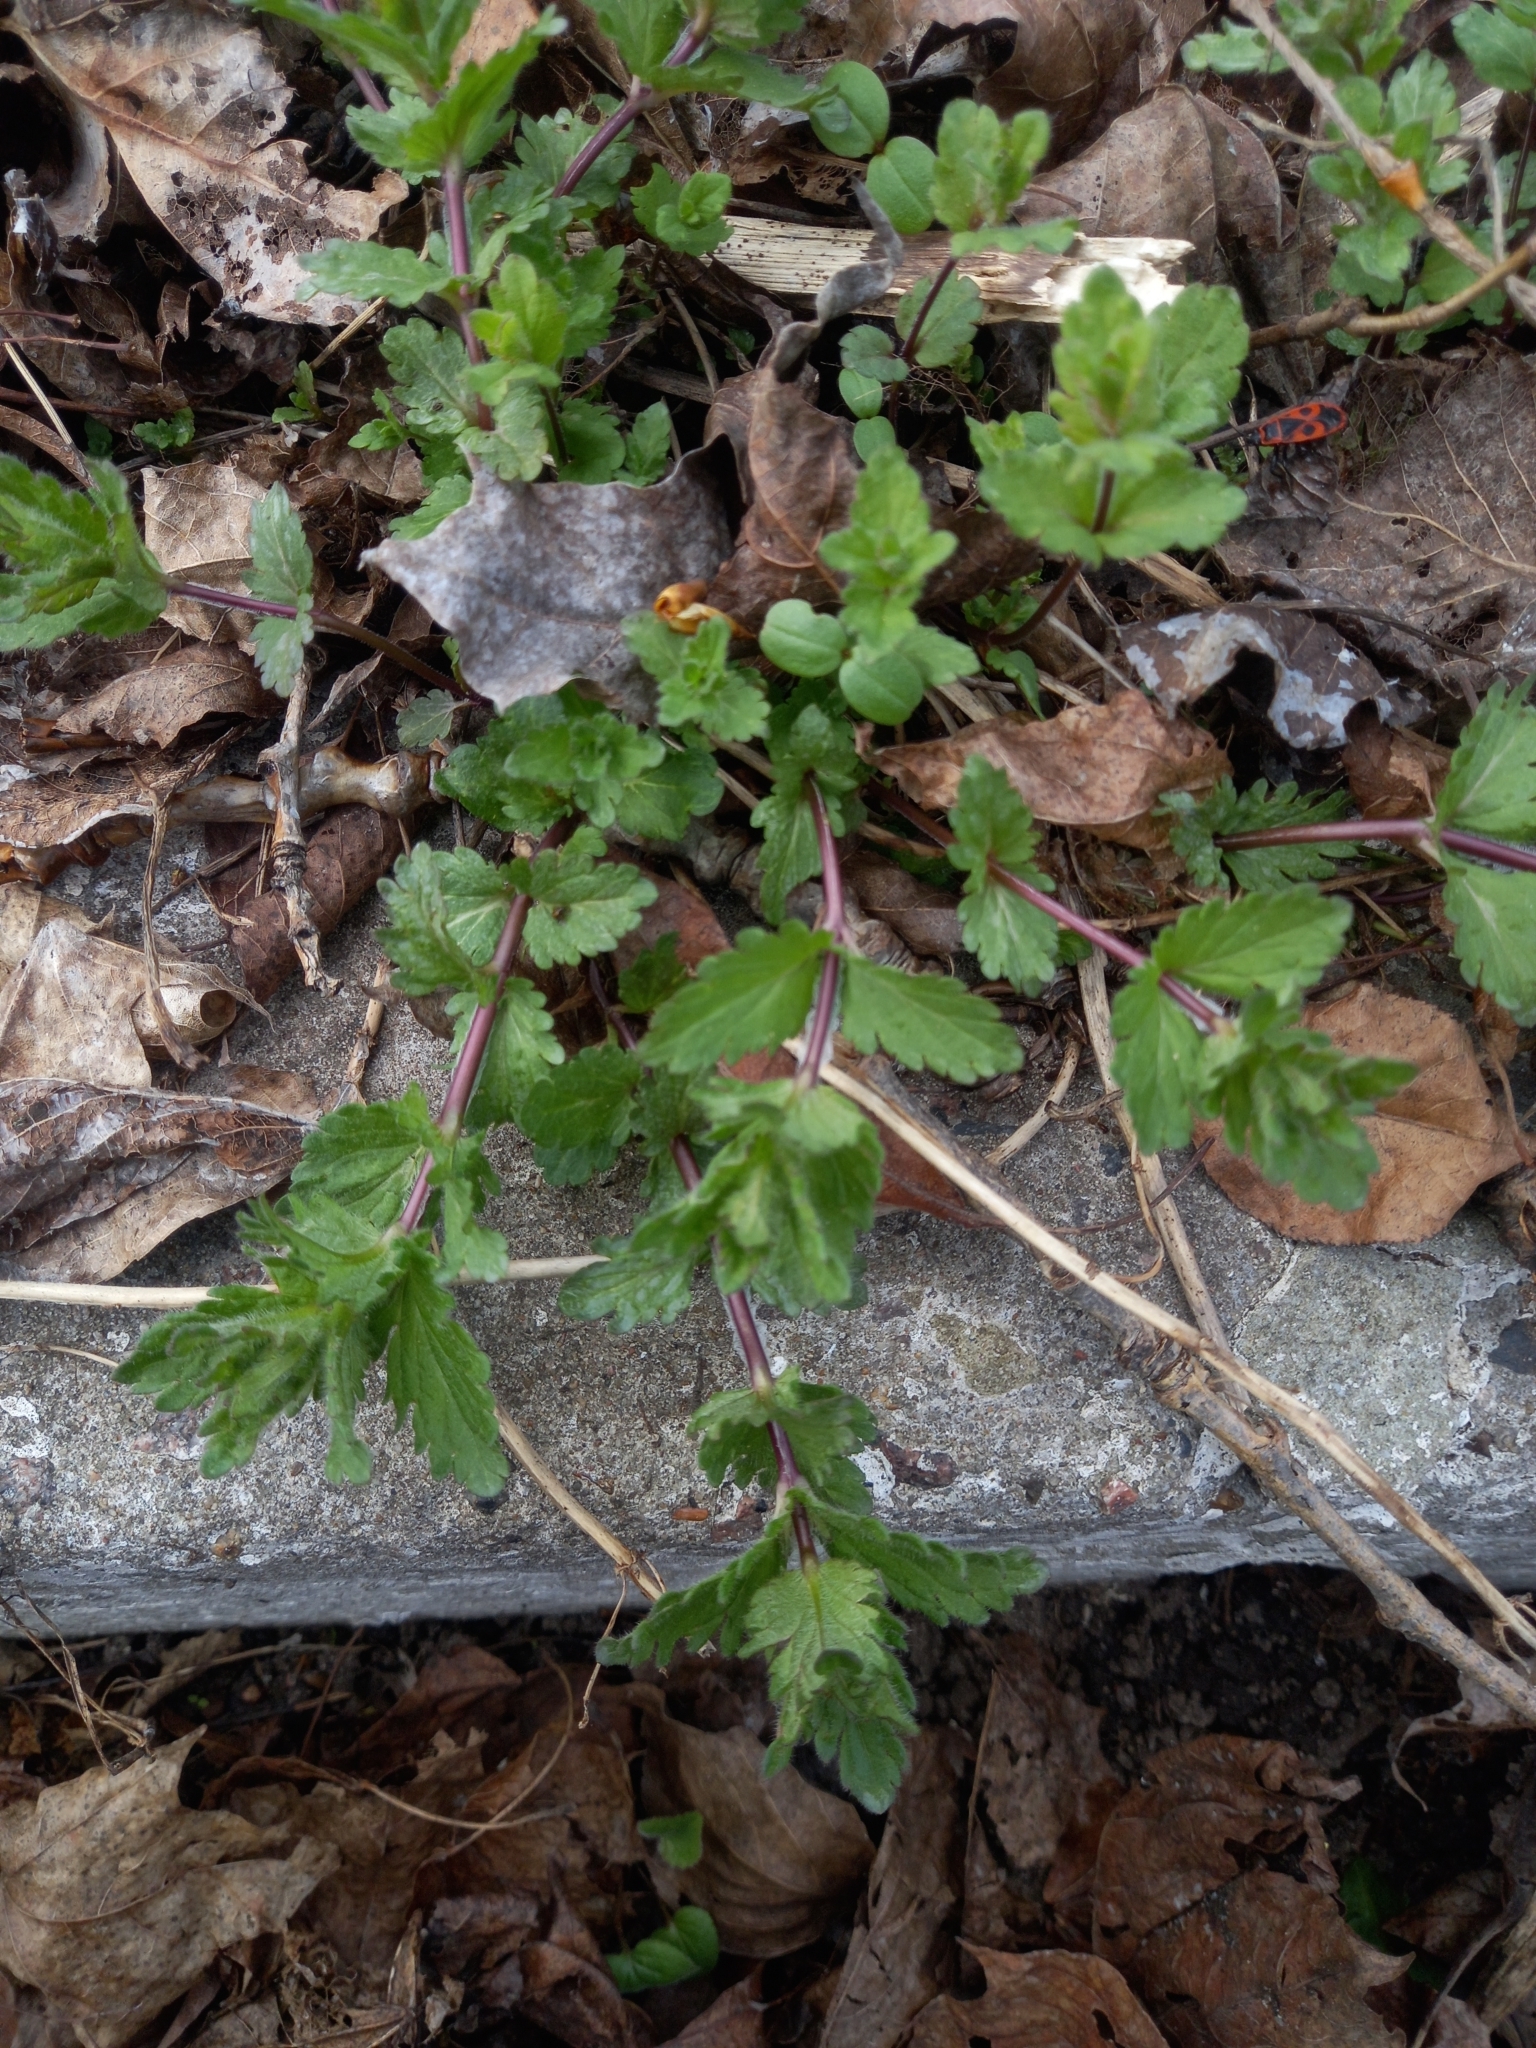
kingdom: Plantae
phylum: Tracheophyta
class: Magnoliopsida
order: Lamiales
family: Plantaginaceae
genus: Veronica
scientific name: Veronica chamaedrys
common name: Germander speedwell
